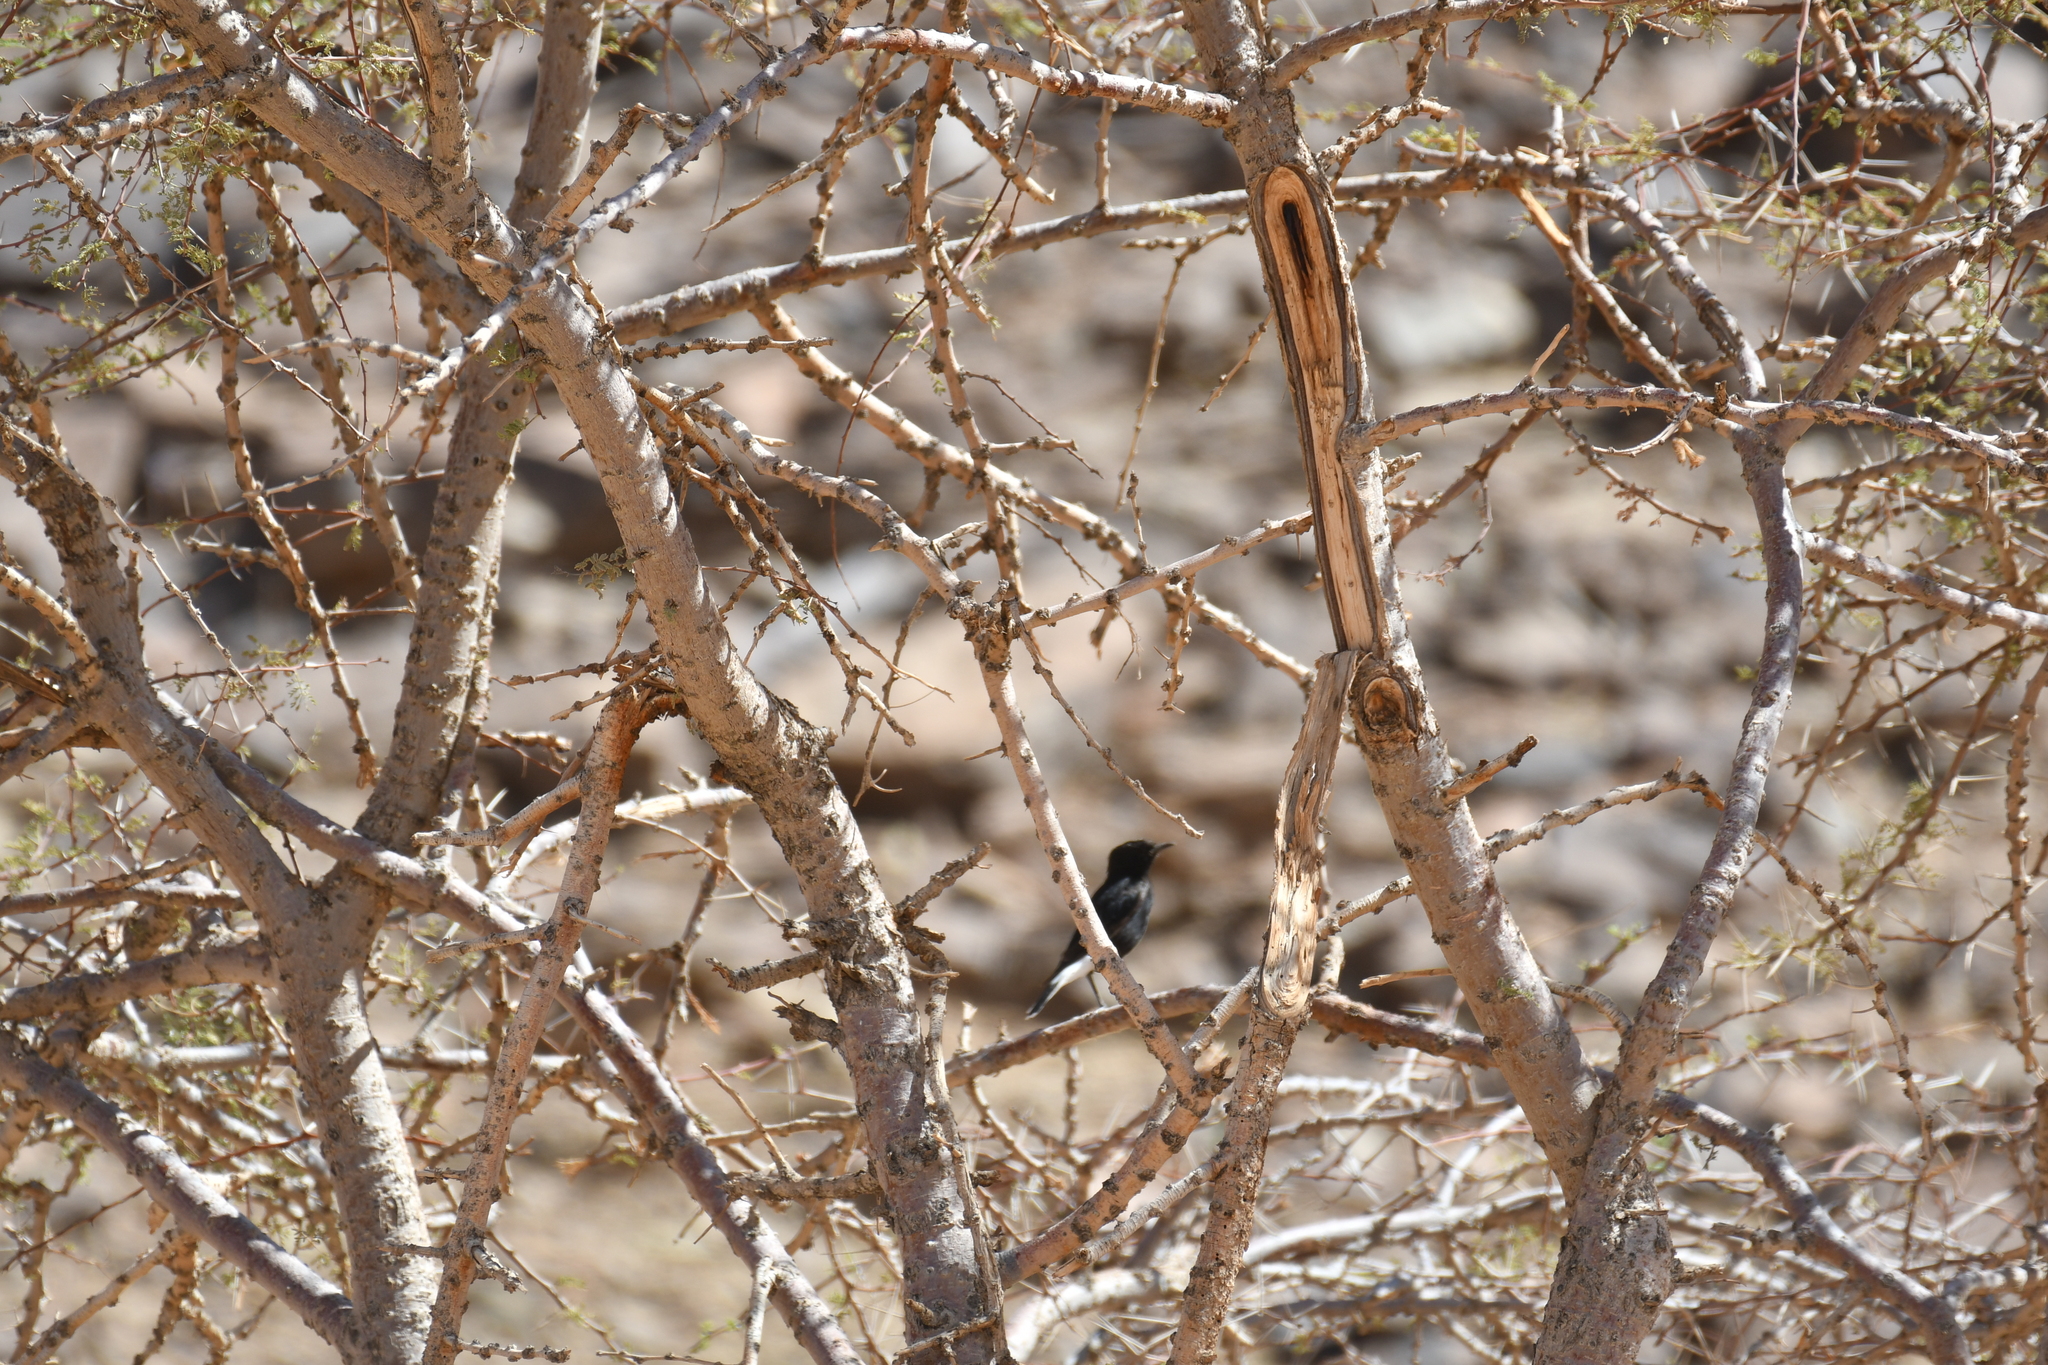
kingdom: Animalia
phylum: Chordata
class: Aves
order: Passeriformes
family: Muscicapidae
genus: Oenanthe
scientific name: Oenanthe leucopyga
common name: White-crowned wheatear
